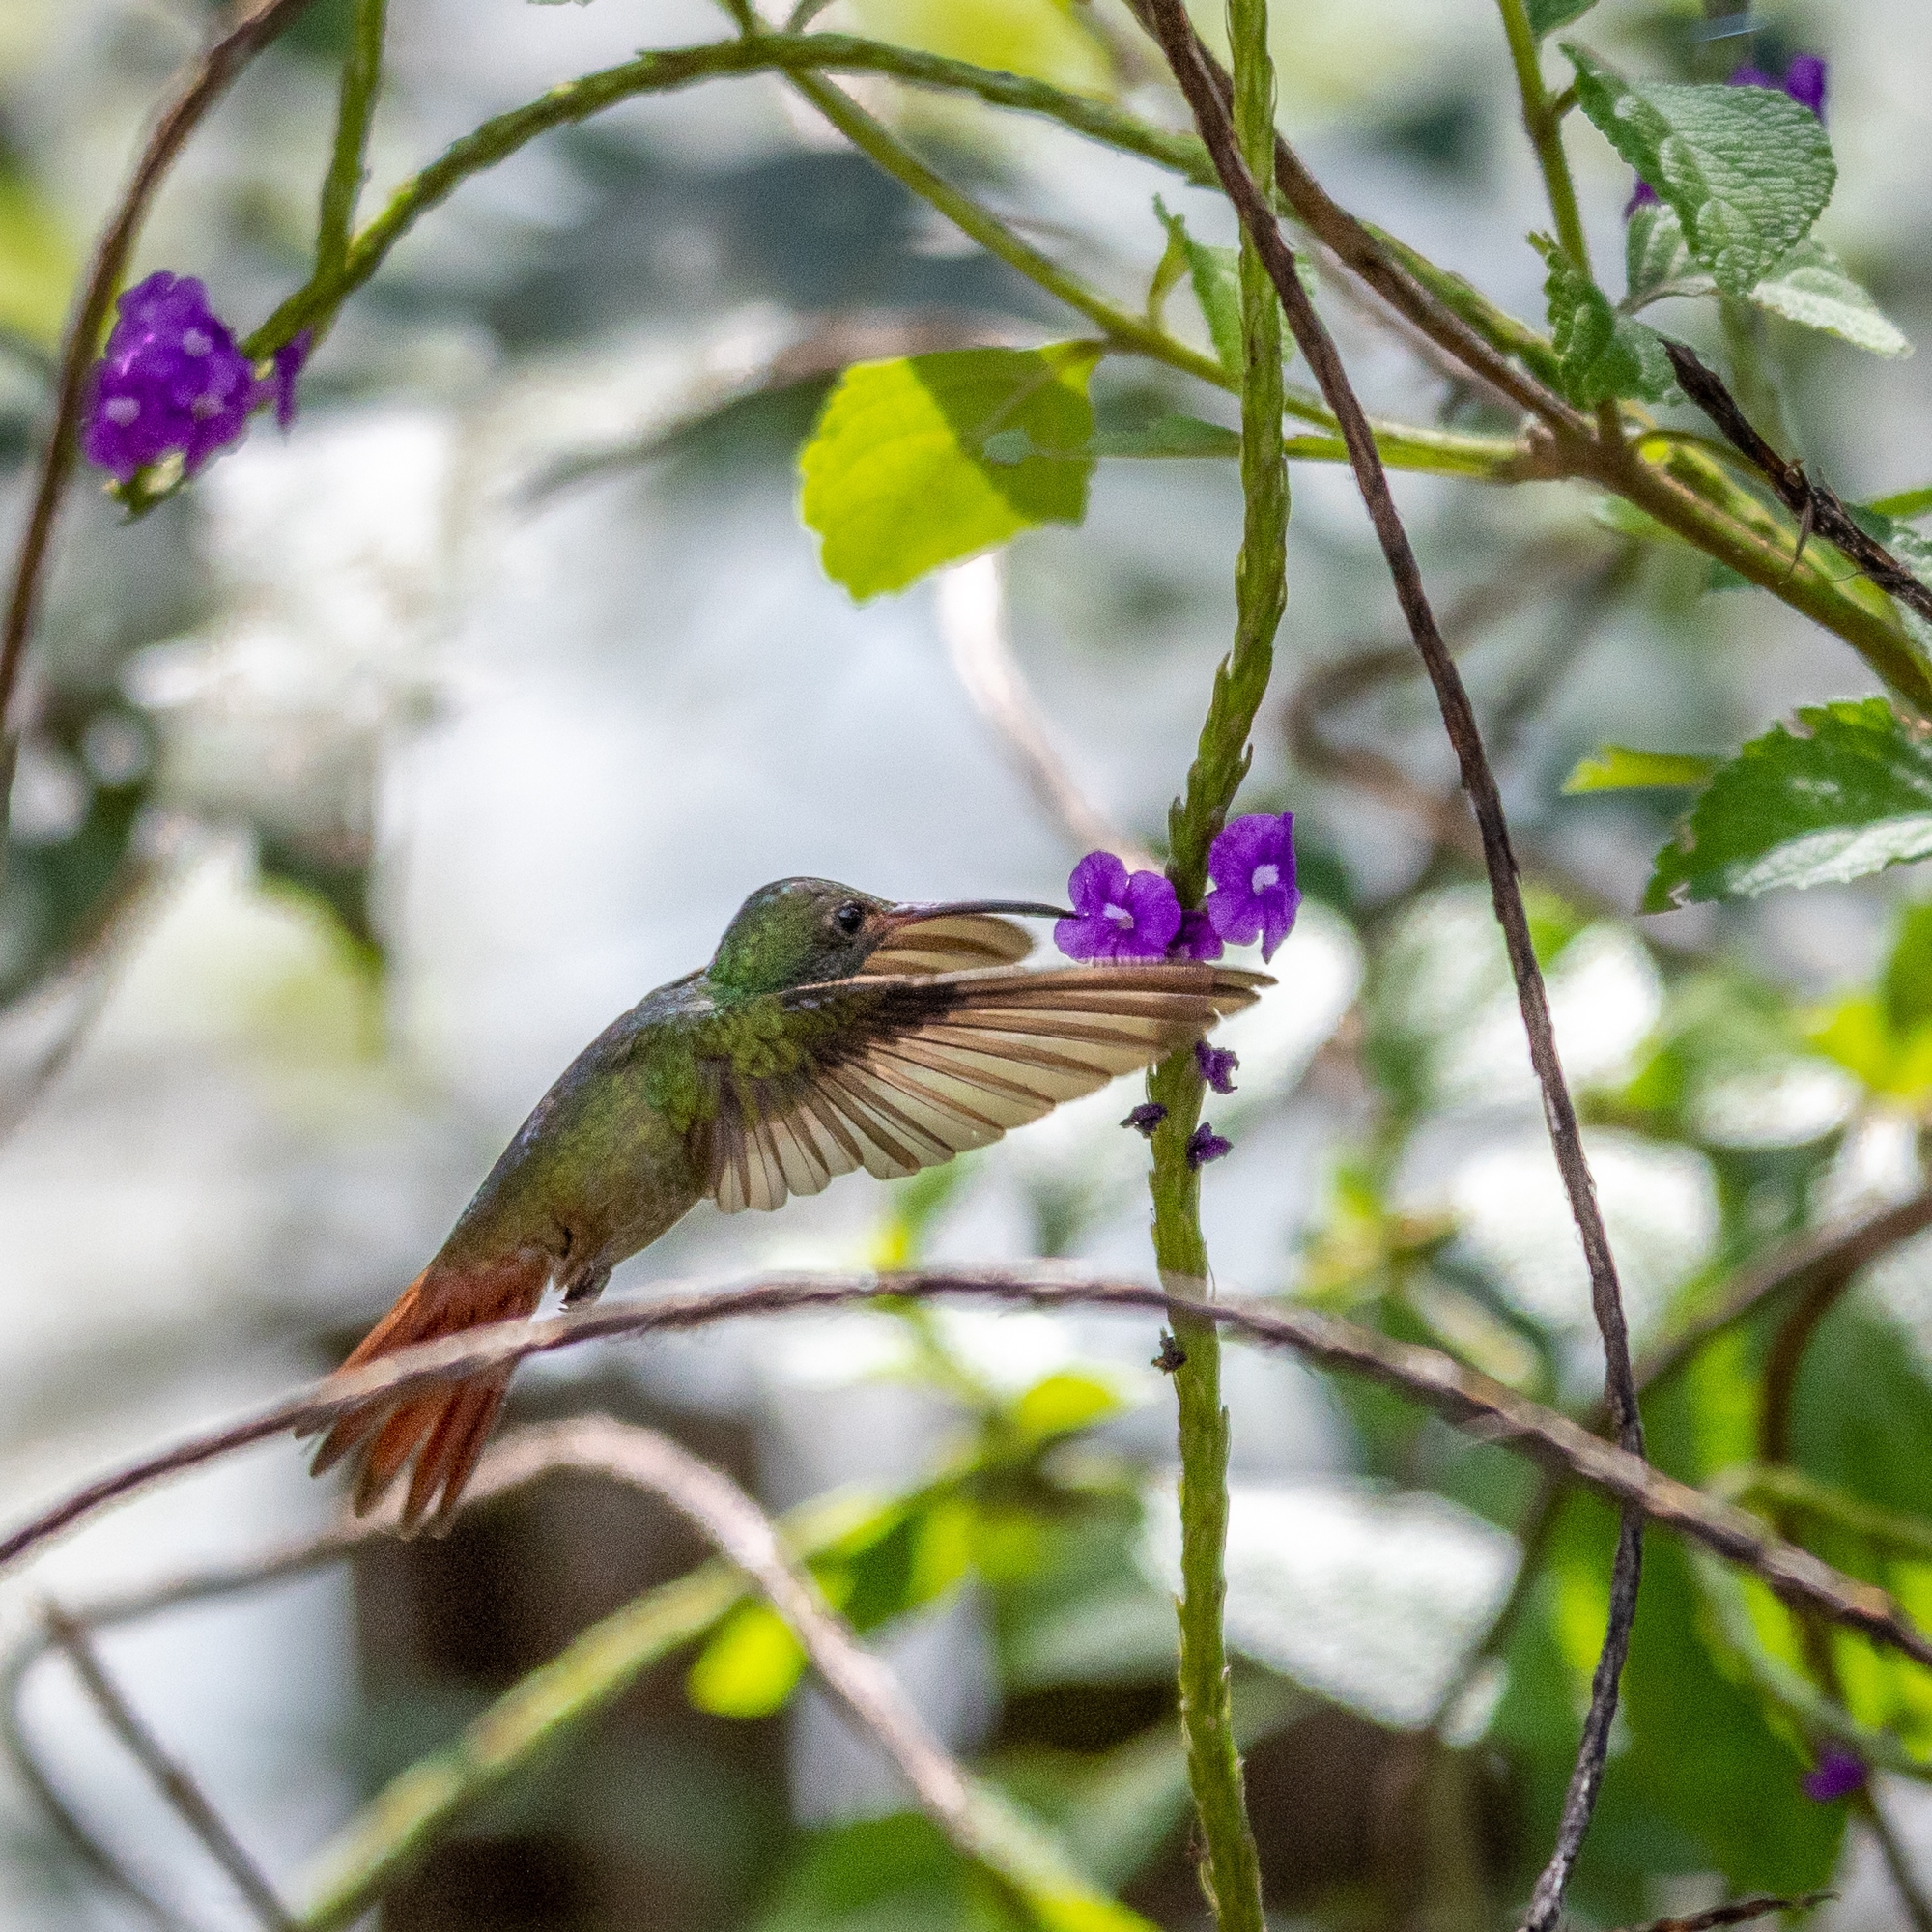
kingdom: Animalia
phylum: Chordata
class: Aves
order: Apodiformes
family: Trochilidae
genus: Amazilia
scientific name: Amazilia tzacatl
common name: Rufous-tailed hummingbird
